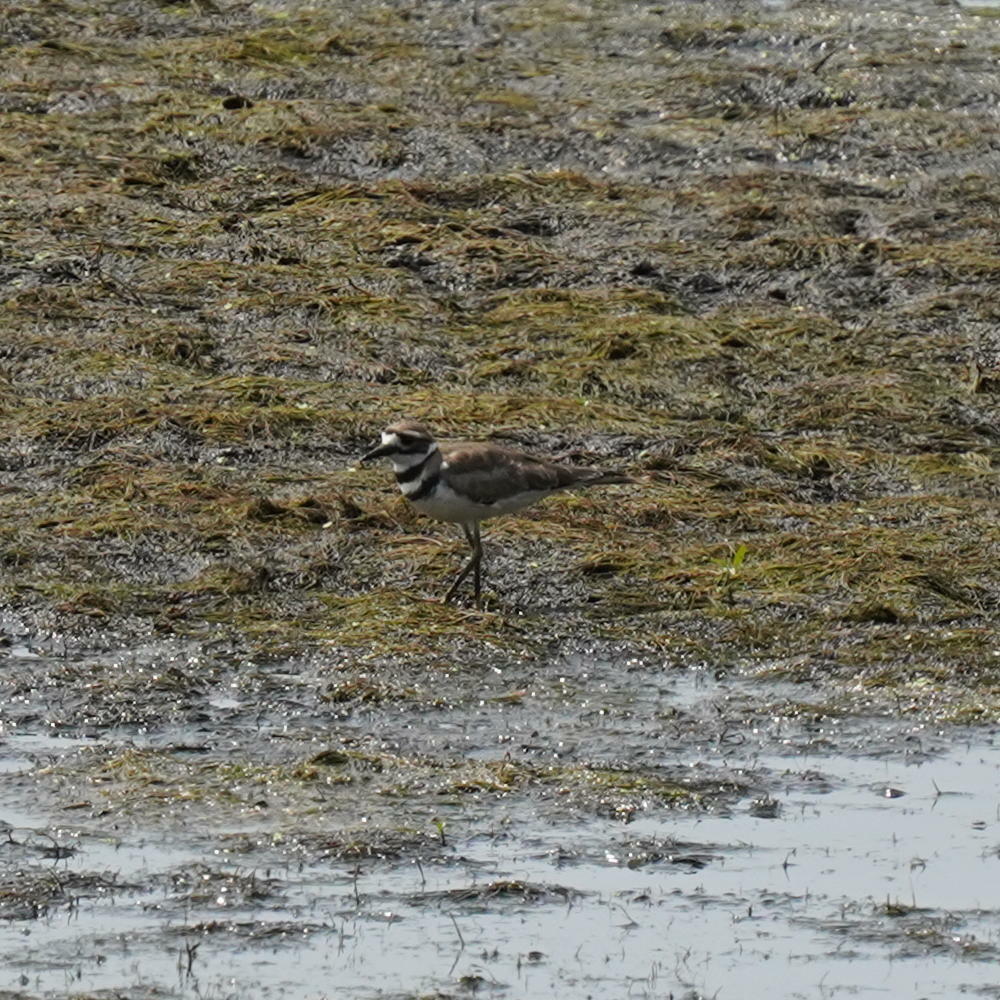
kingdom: Animalia
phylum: Chordata
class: Aves
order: Charadriiformes
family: Charadriidae
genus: Charadrius
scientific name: Charadrius vociferus
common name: Killdeer
